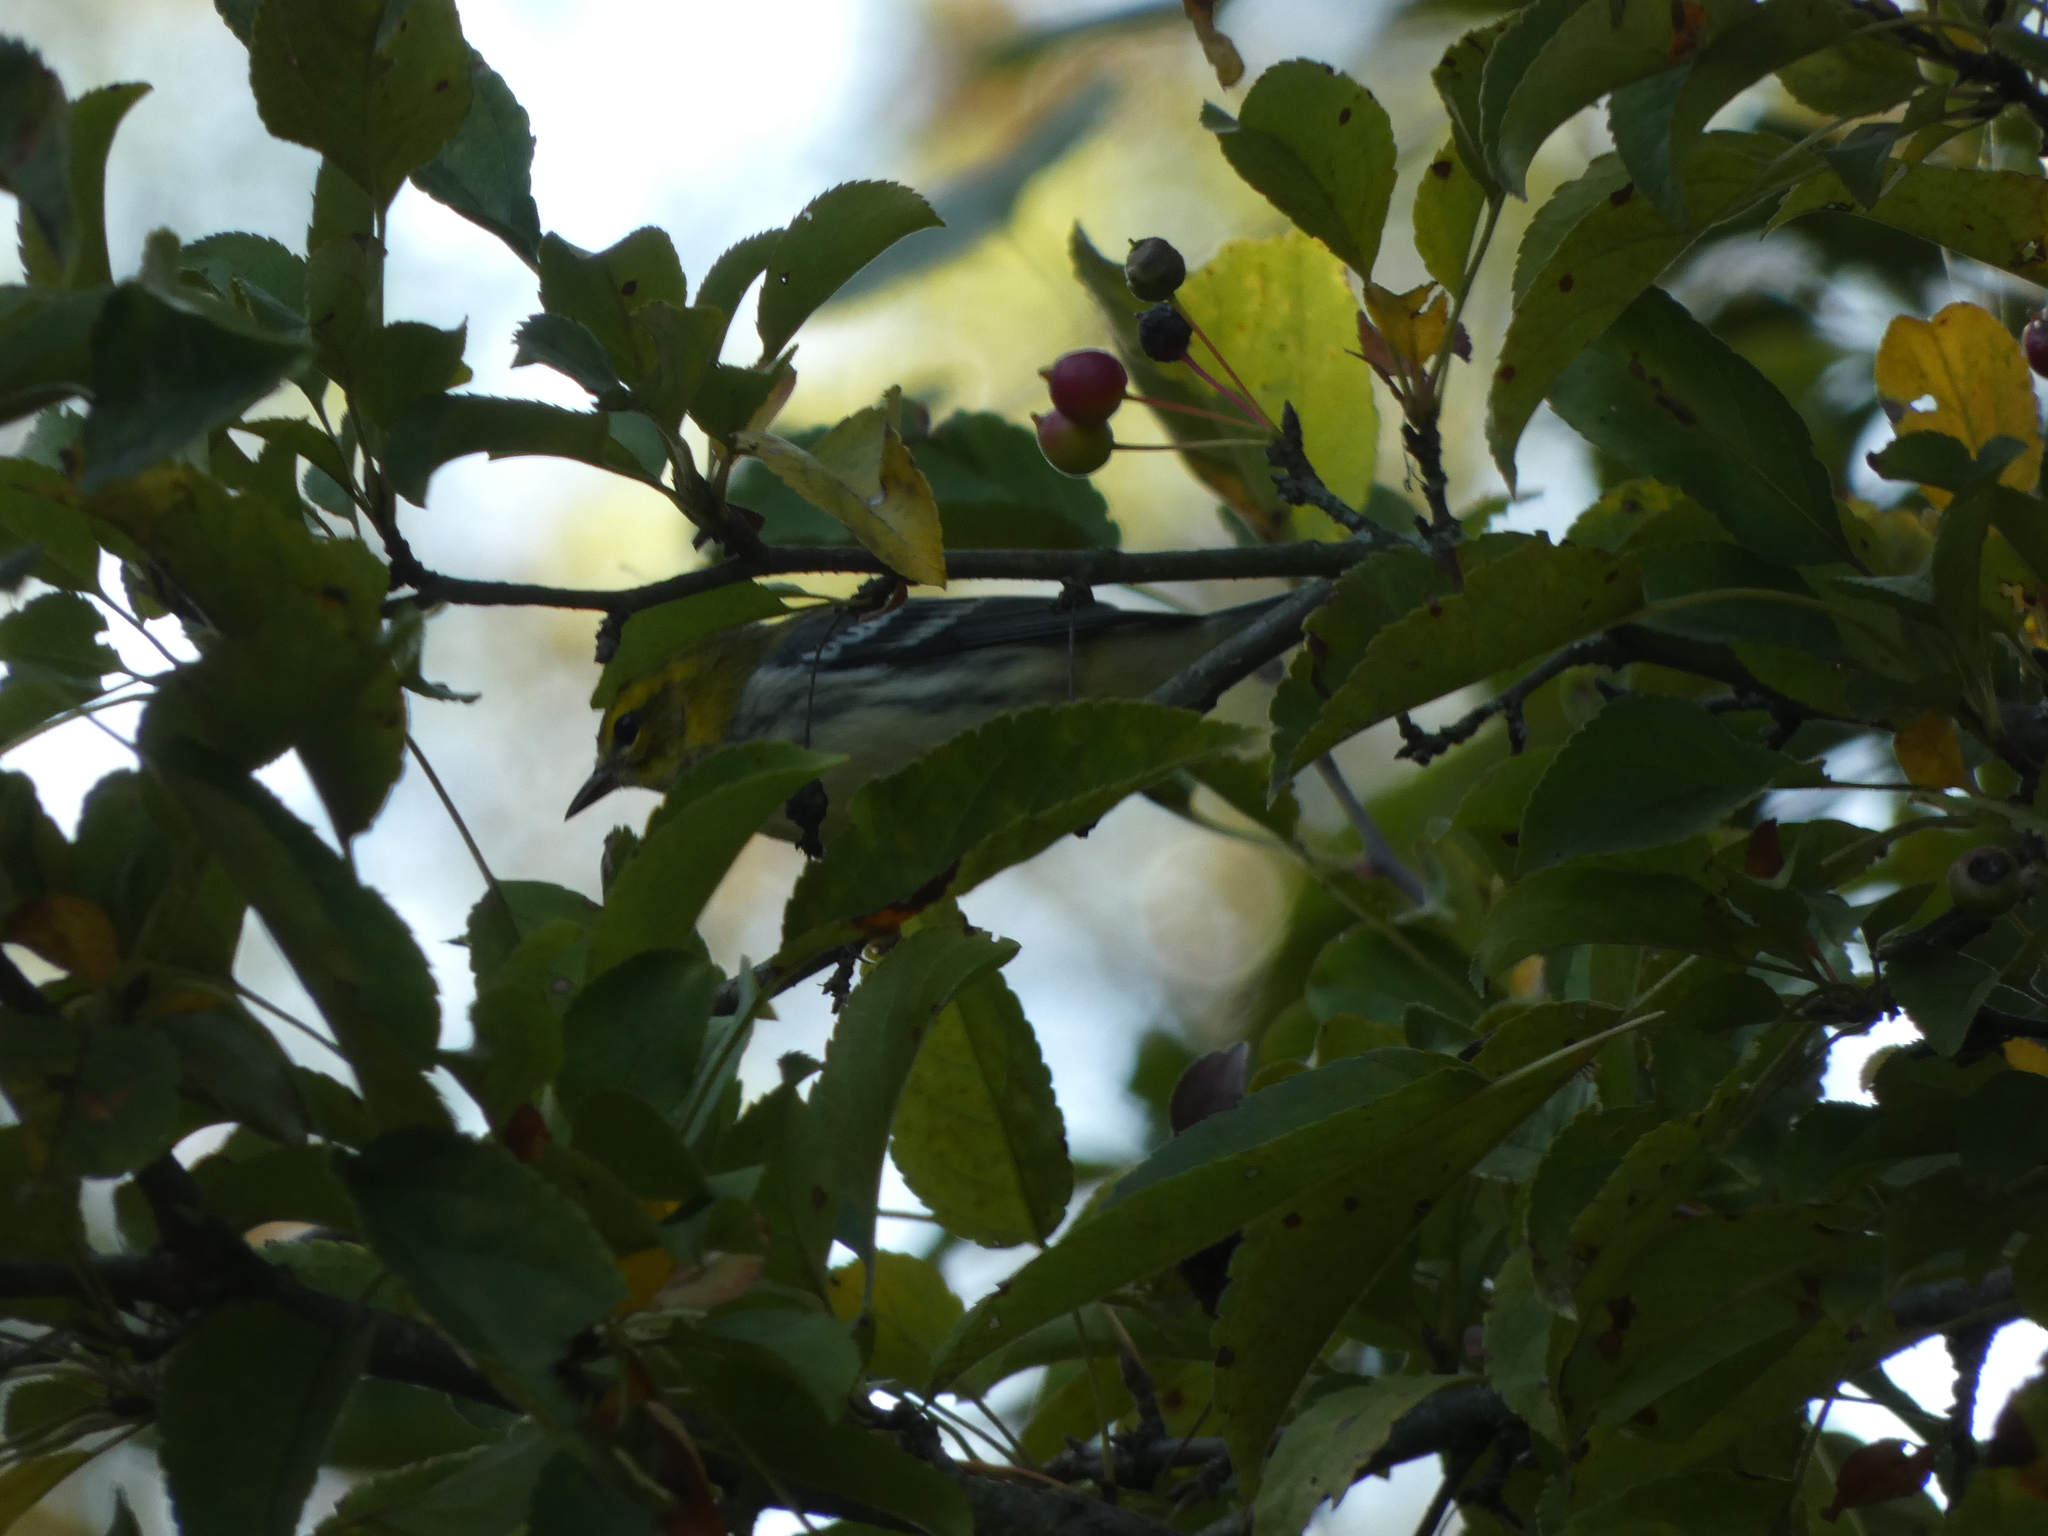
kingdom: Animalia
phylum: Chordata
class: Aves
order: Passeriformes
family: Parulidae
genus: Setophaga
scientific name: Setophaga virens
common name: Black-throated green warbler
